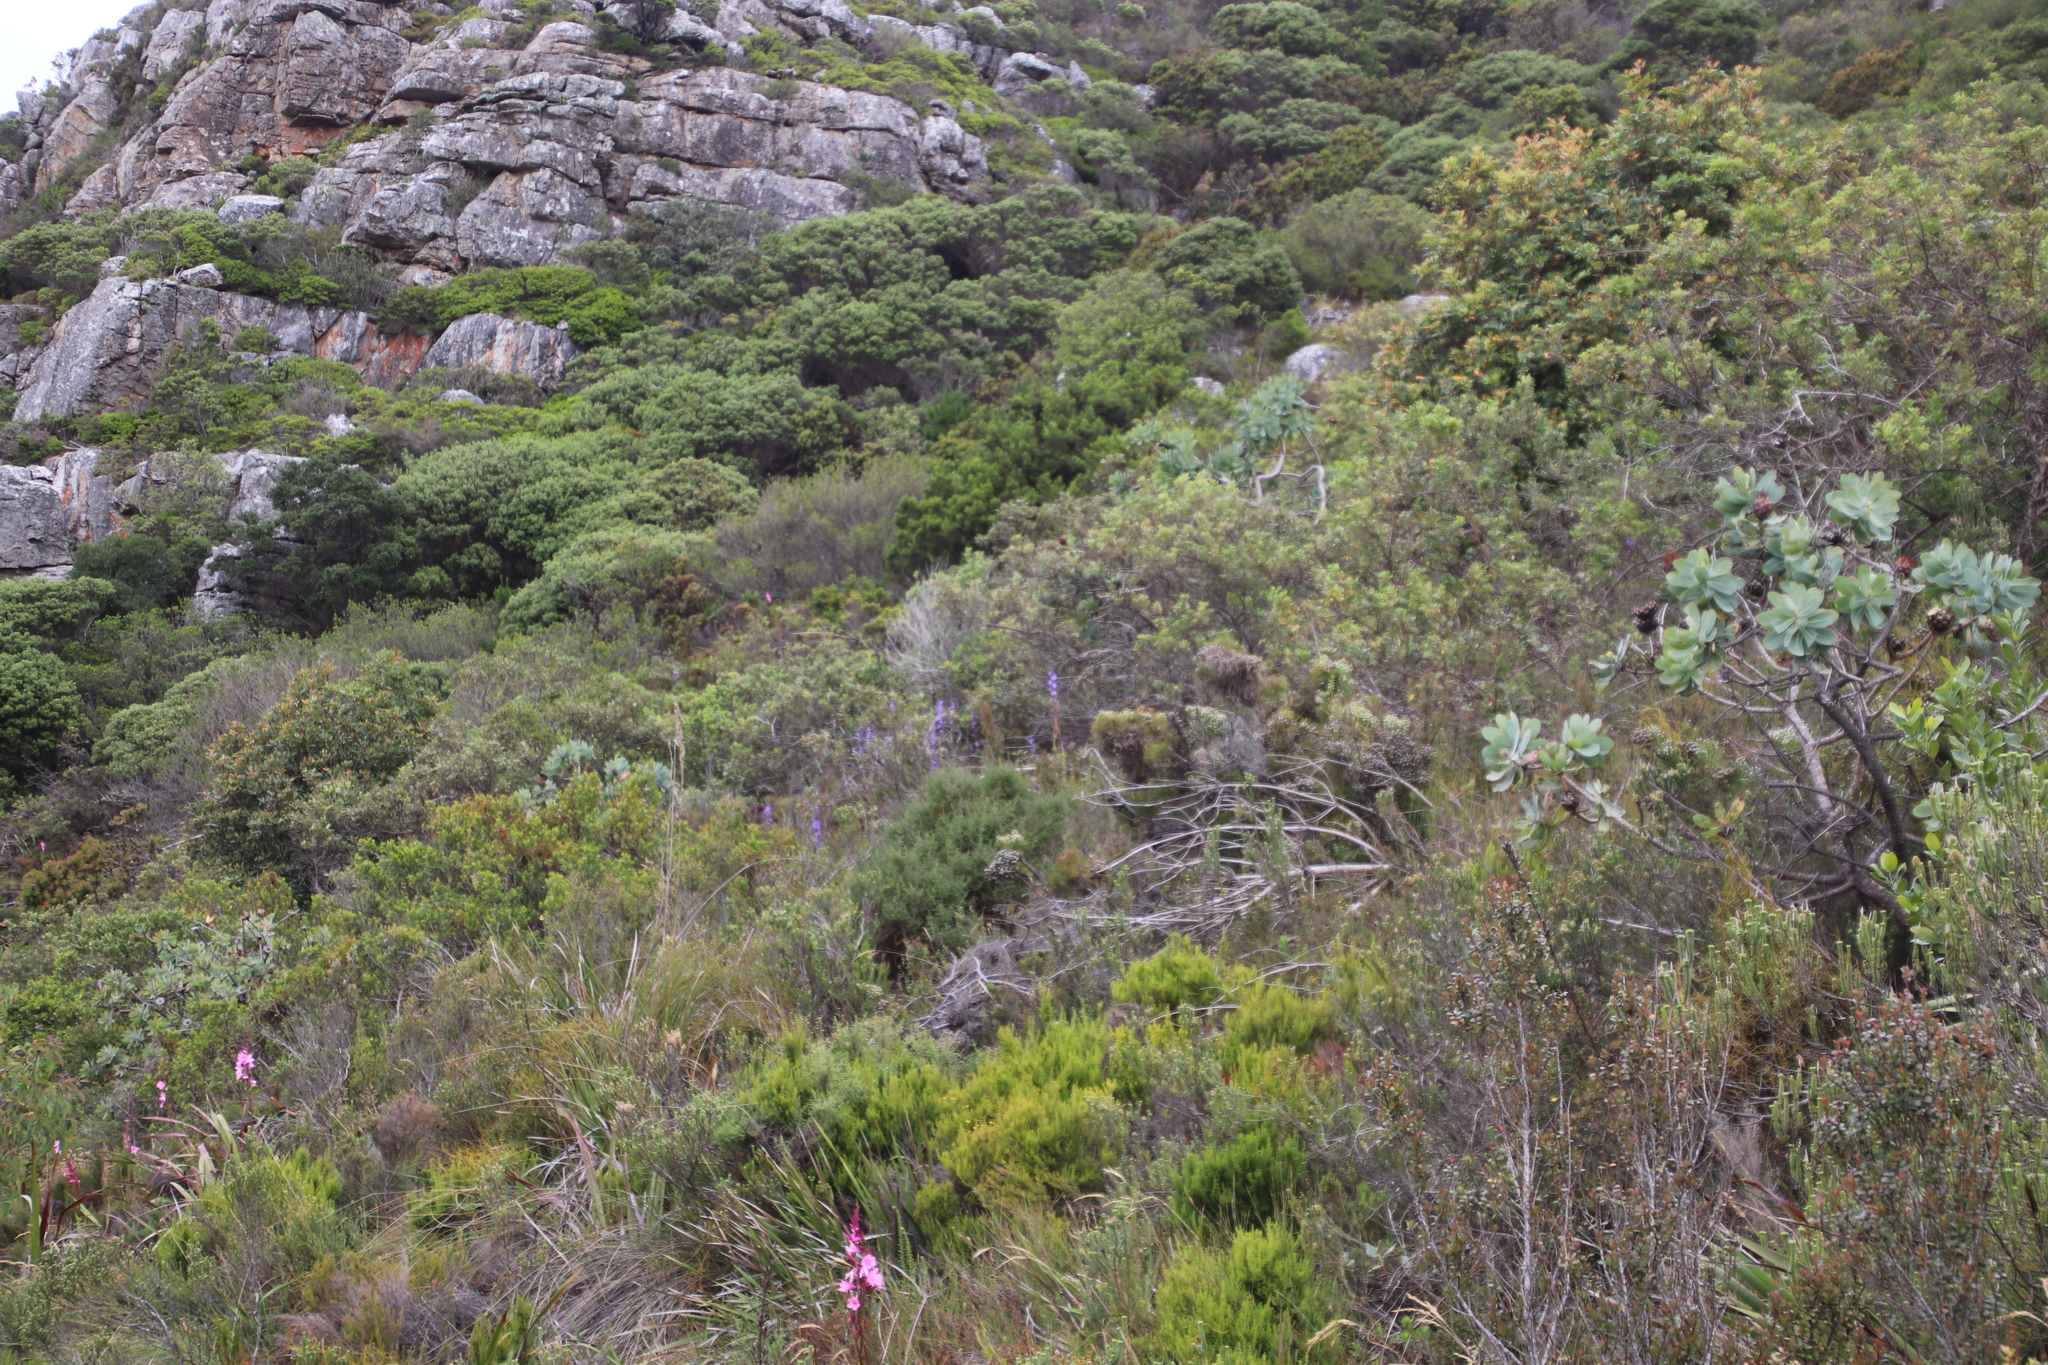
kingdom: Plantae
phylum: Tracheophyta
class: Magnoliopsida
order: Proteales
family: Proteaceae
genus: Protea
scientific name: Protea nitida
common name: Tree protea
